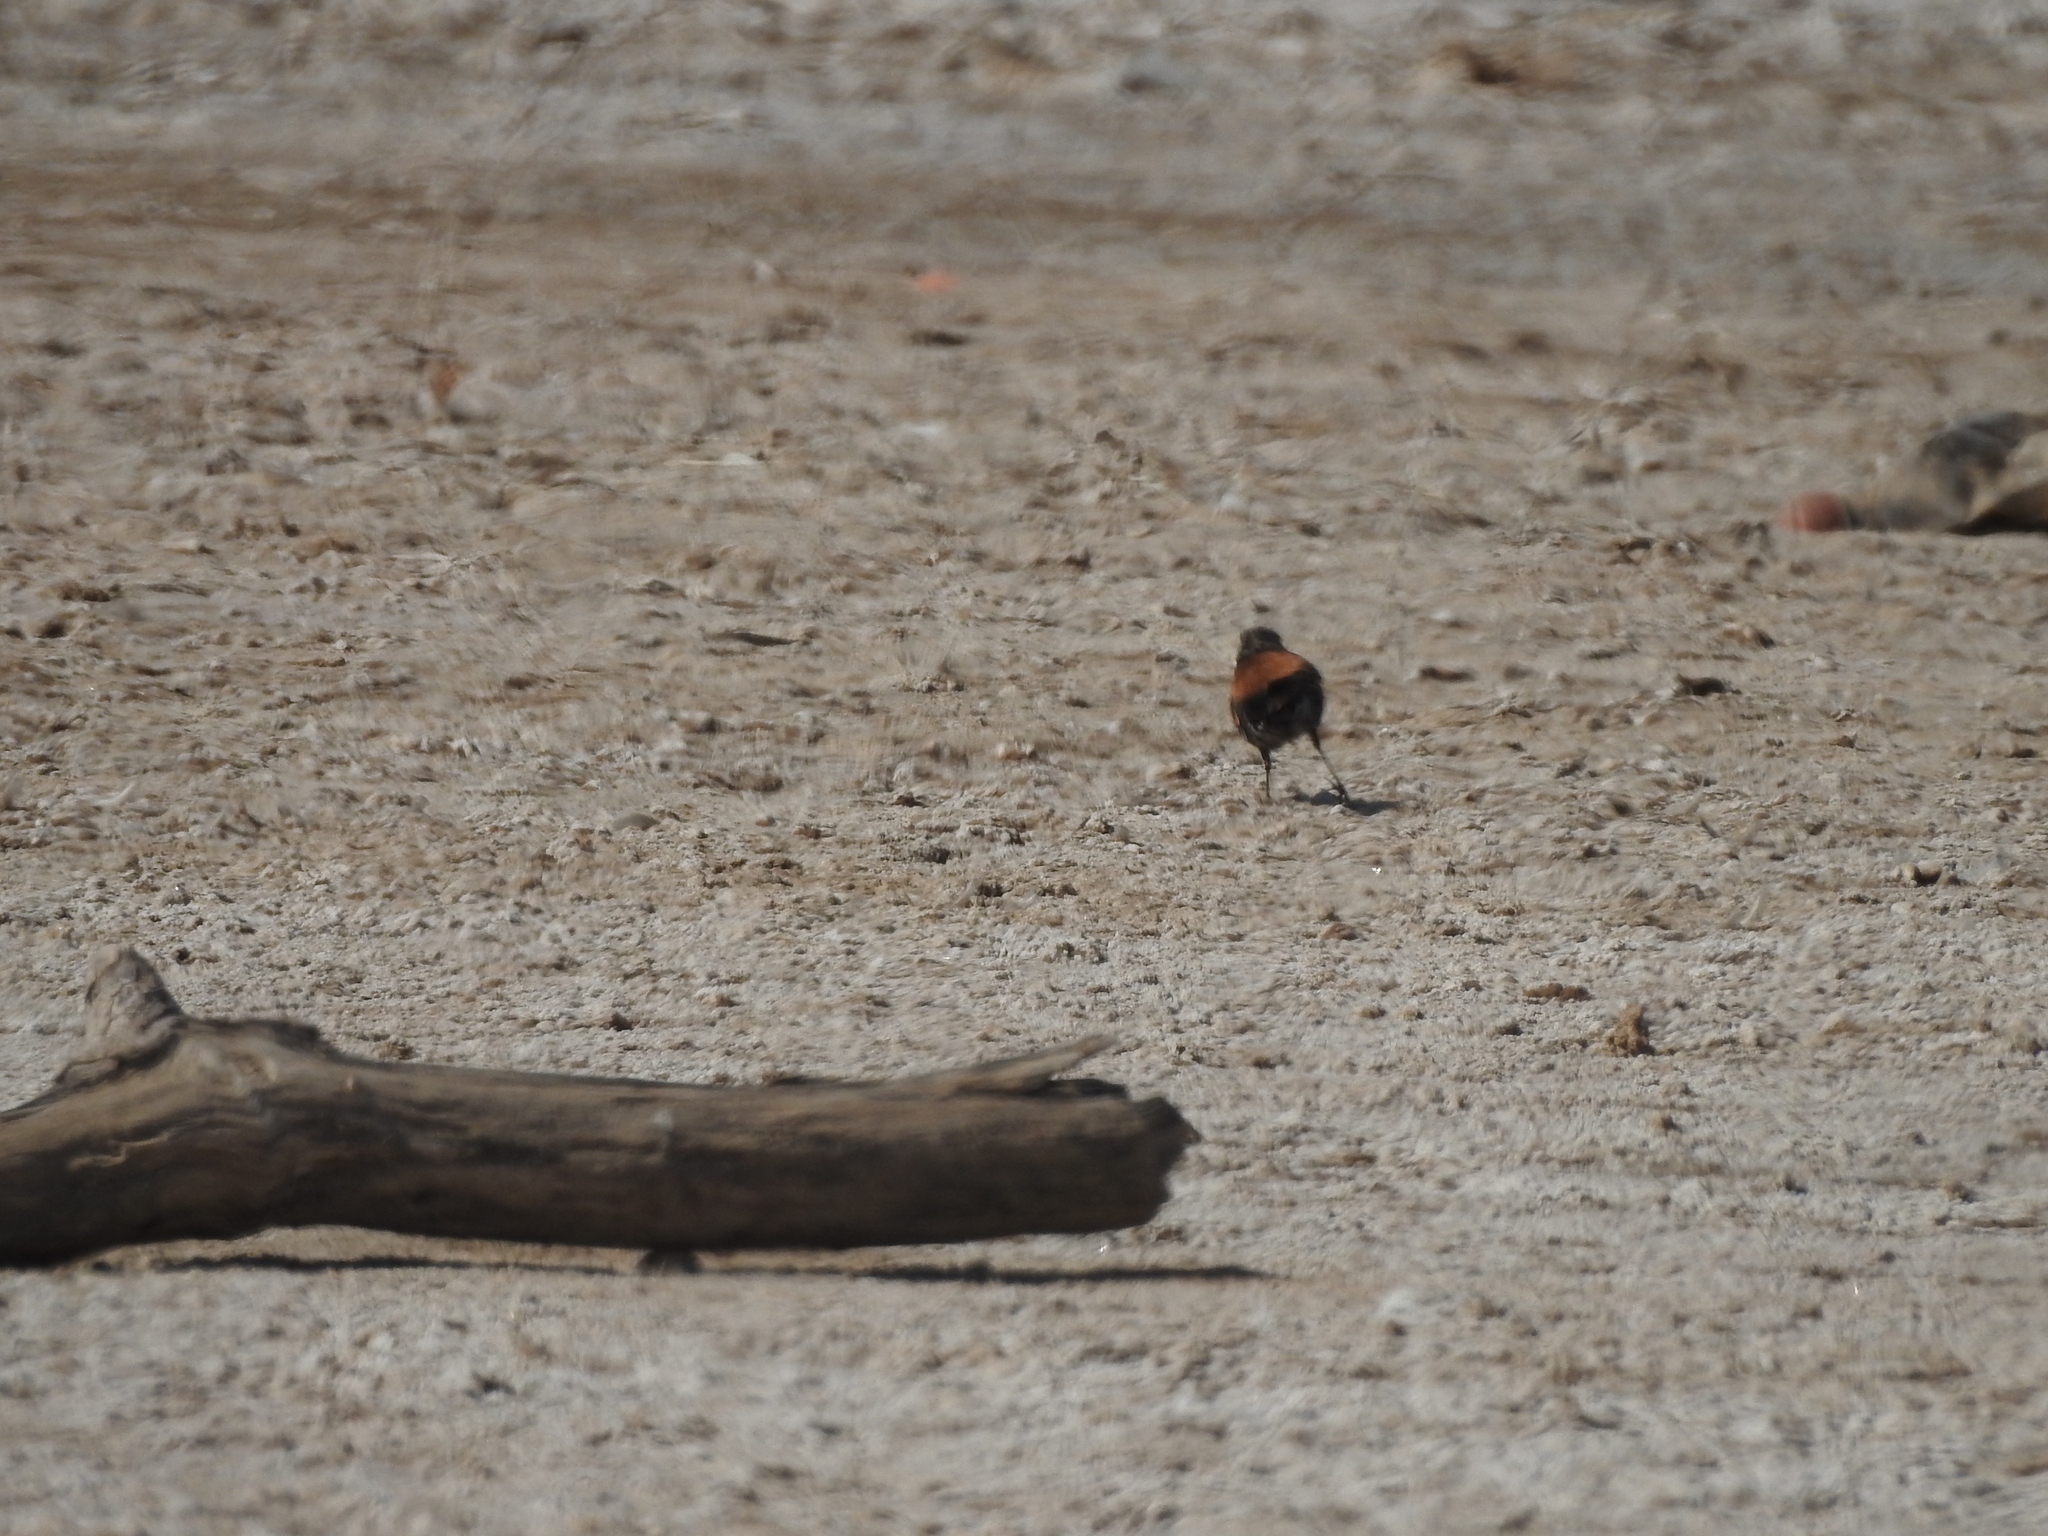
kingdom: Animalia
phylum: Chordata
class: Aves
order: Passeriformes
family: Tyrannidae
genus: Lessonia
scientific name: Lessonia rufa
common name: Austral negrito
